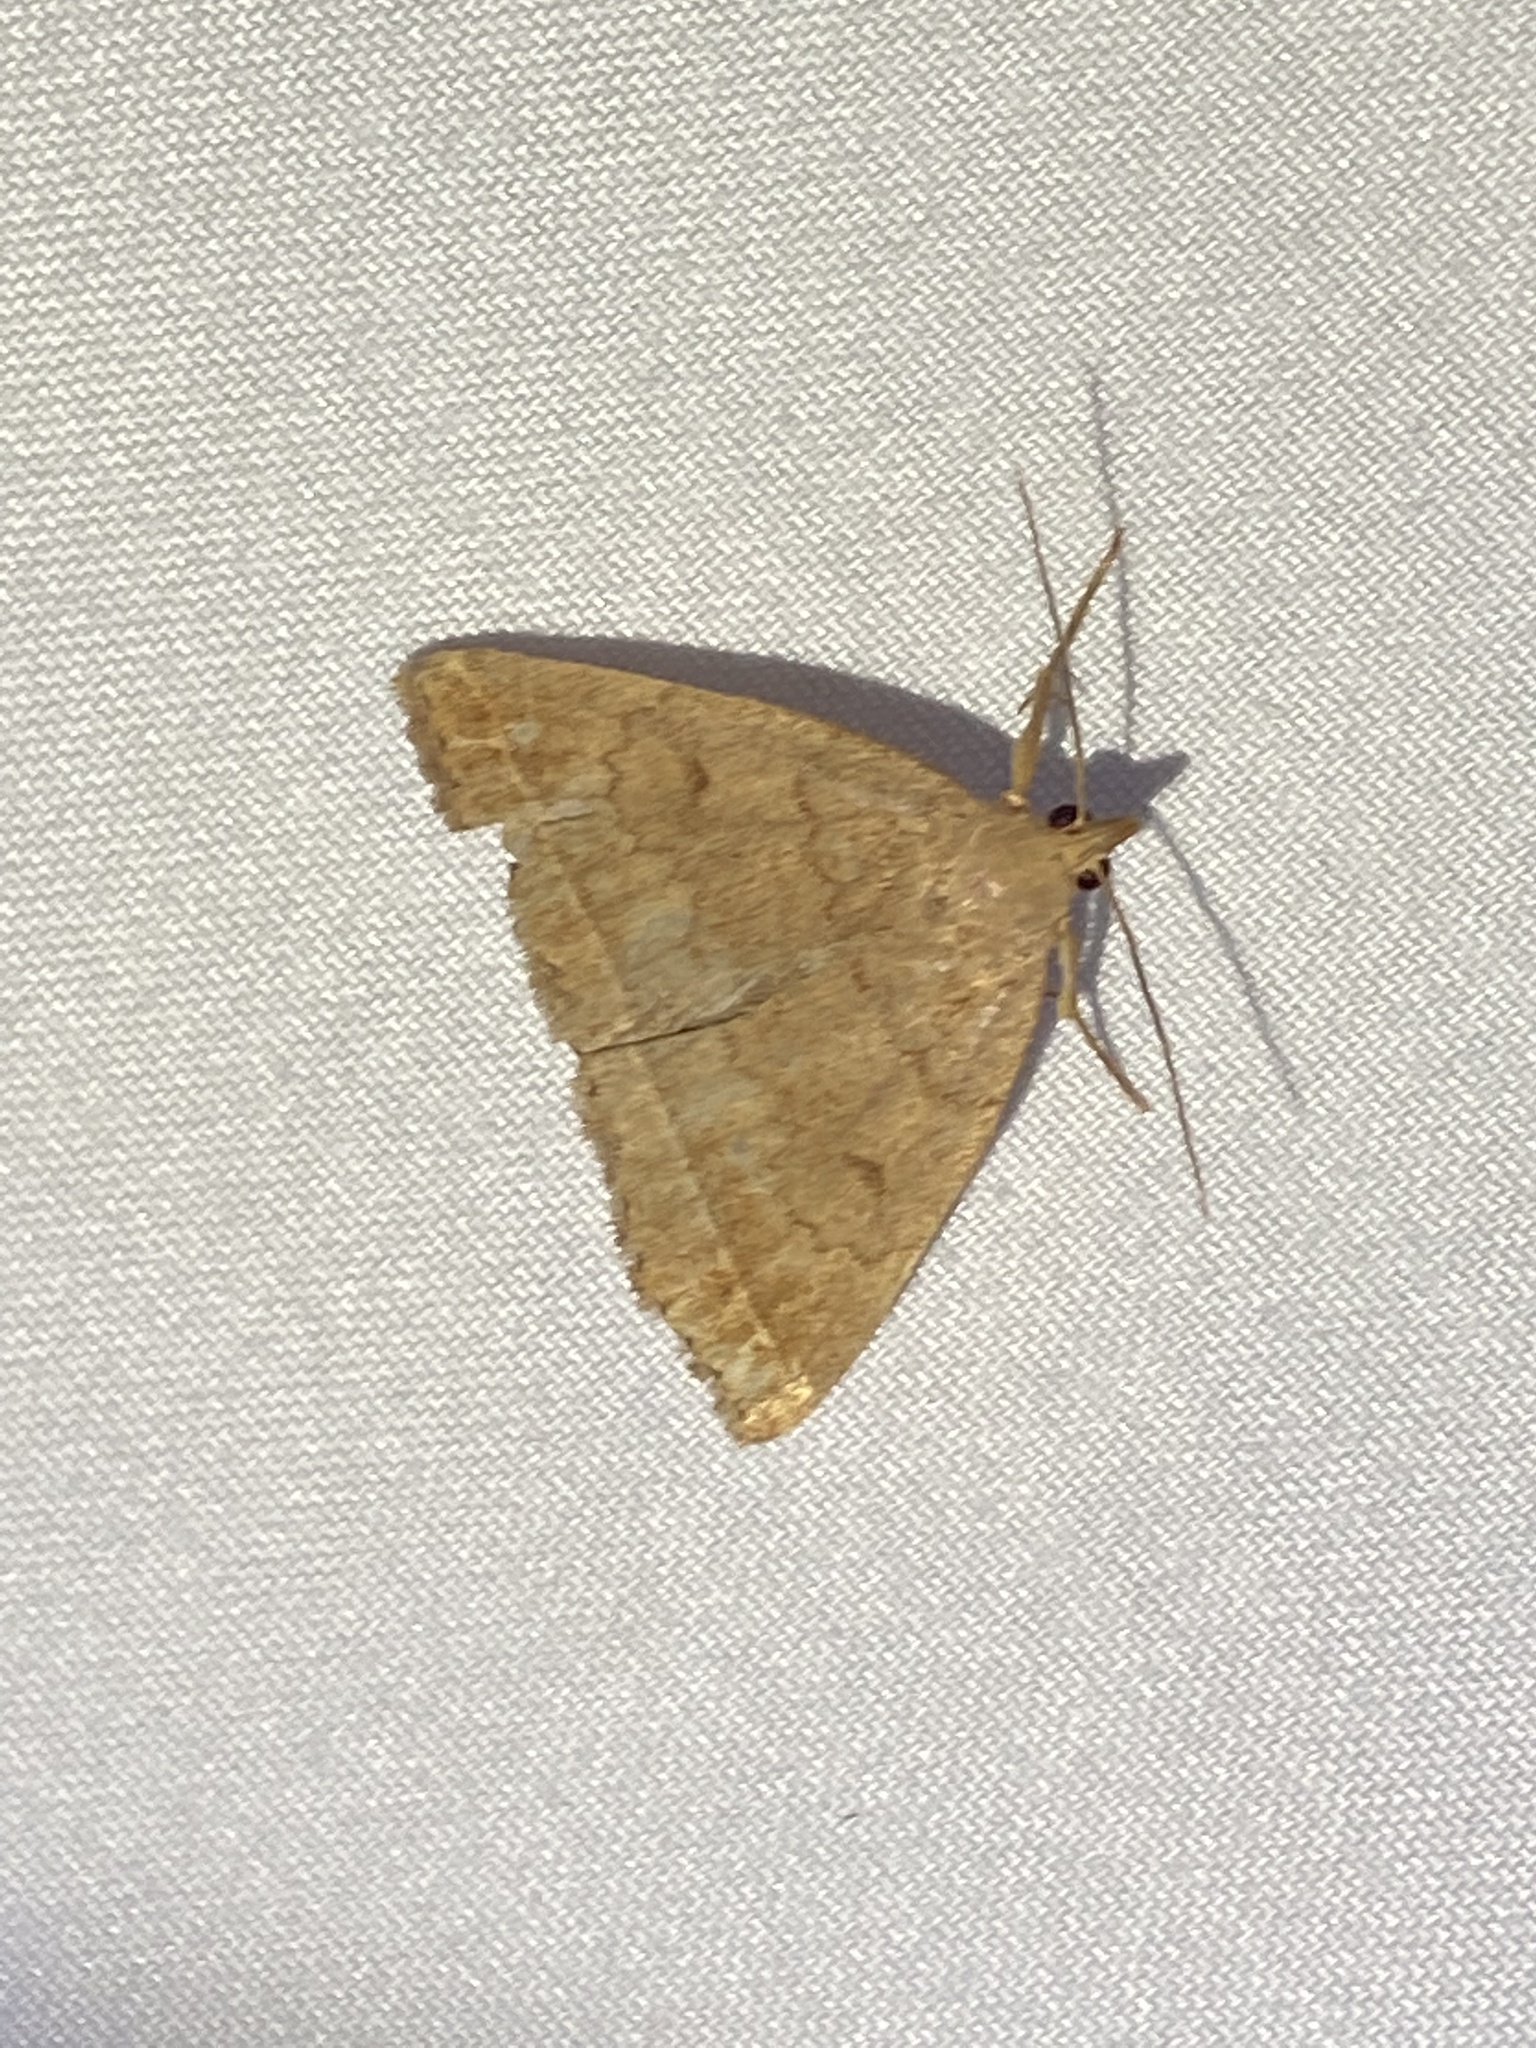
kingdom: Animalia
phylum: Arthropoda
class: Insecta
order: Lepidoptera
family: Erebidae
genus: Zanclognatha
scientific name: Zanclognatha jacchusalis
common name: Yellowish zanclognatha
